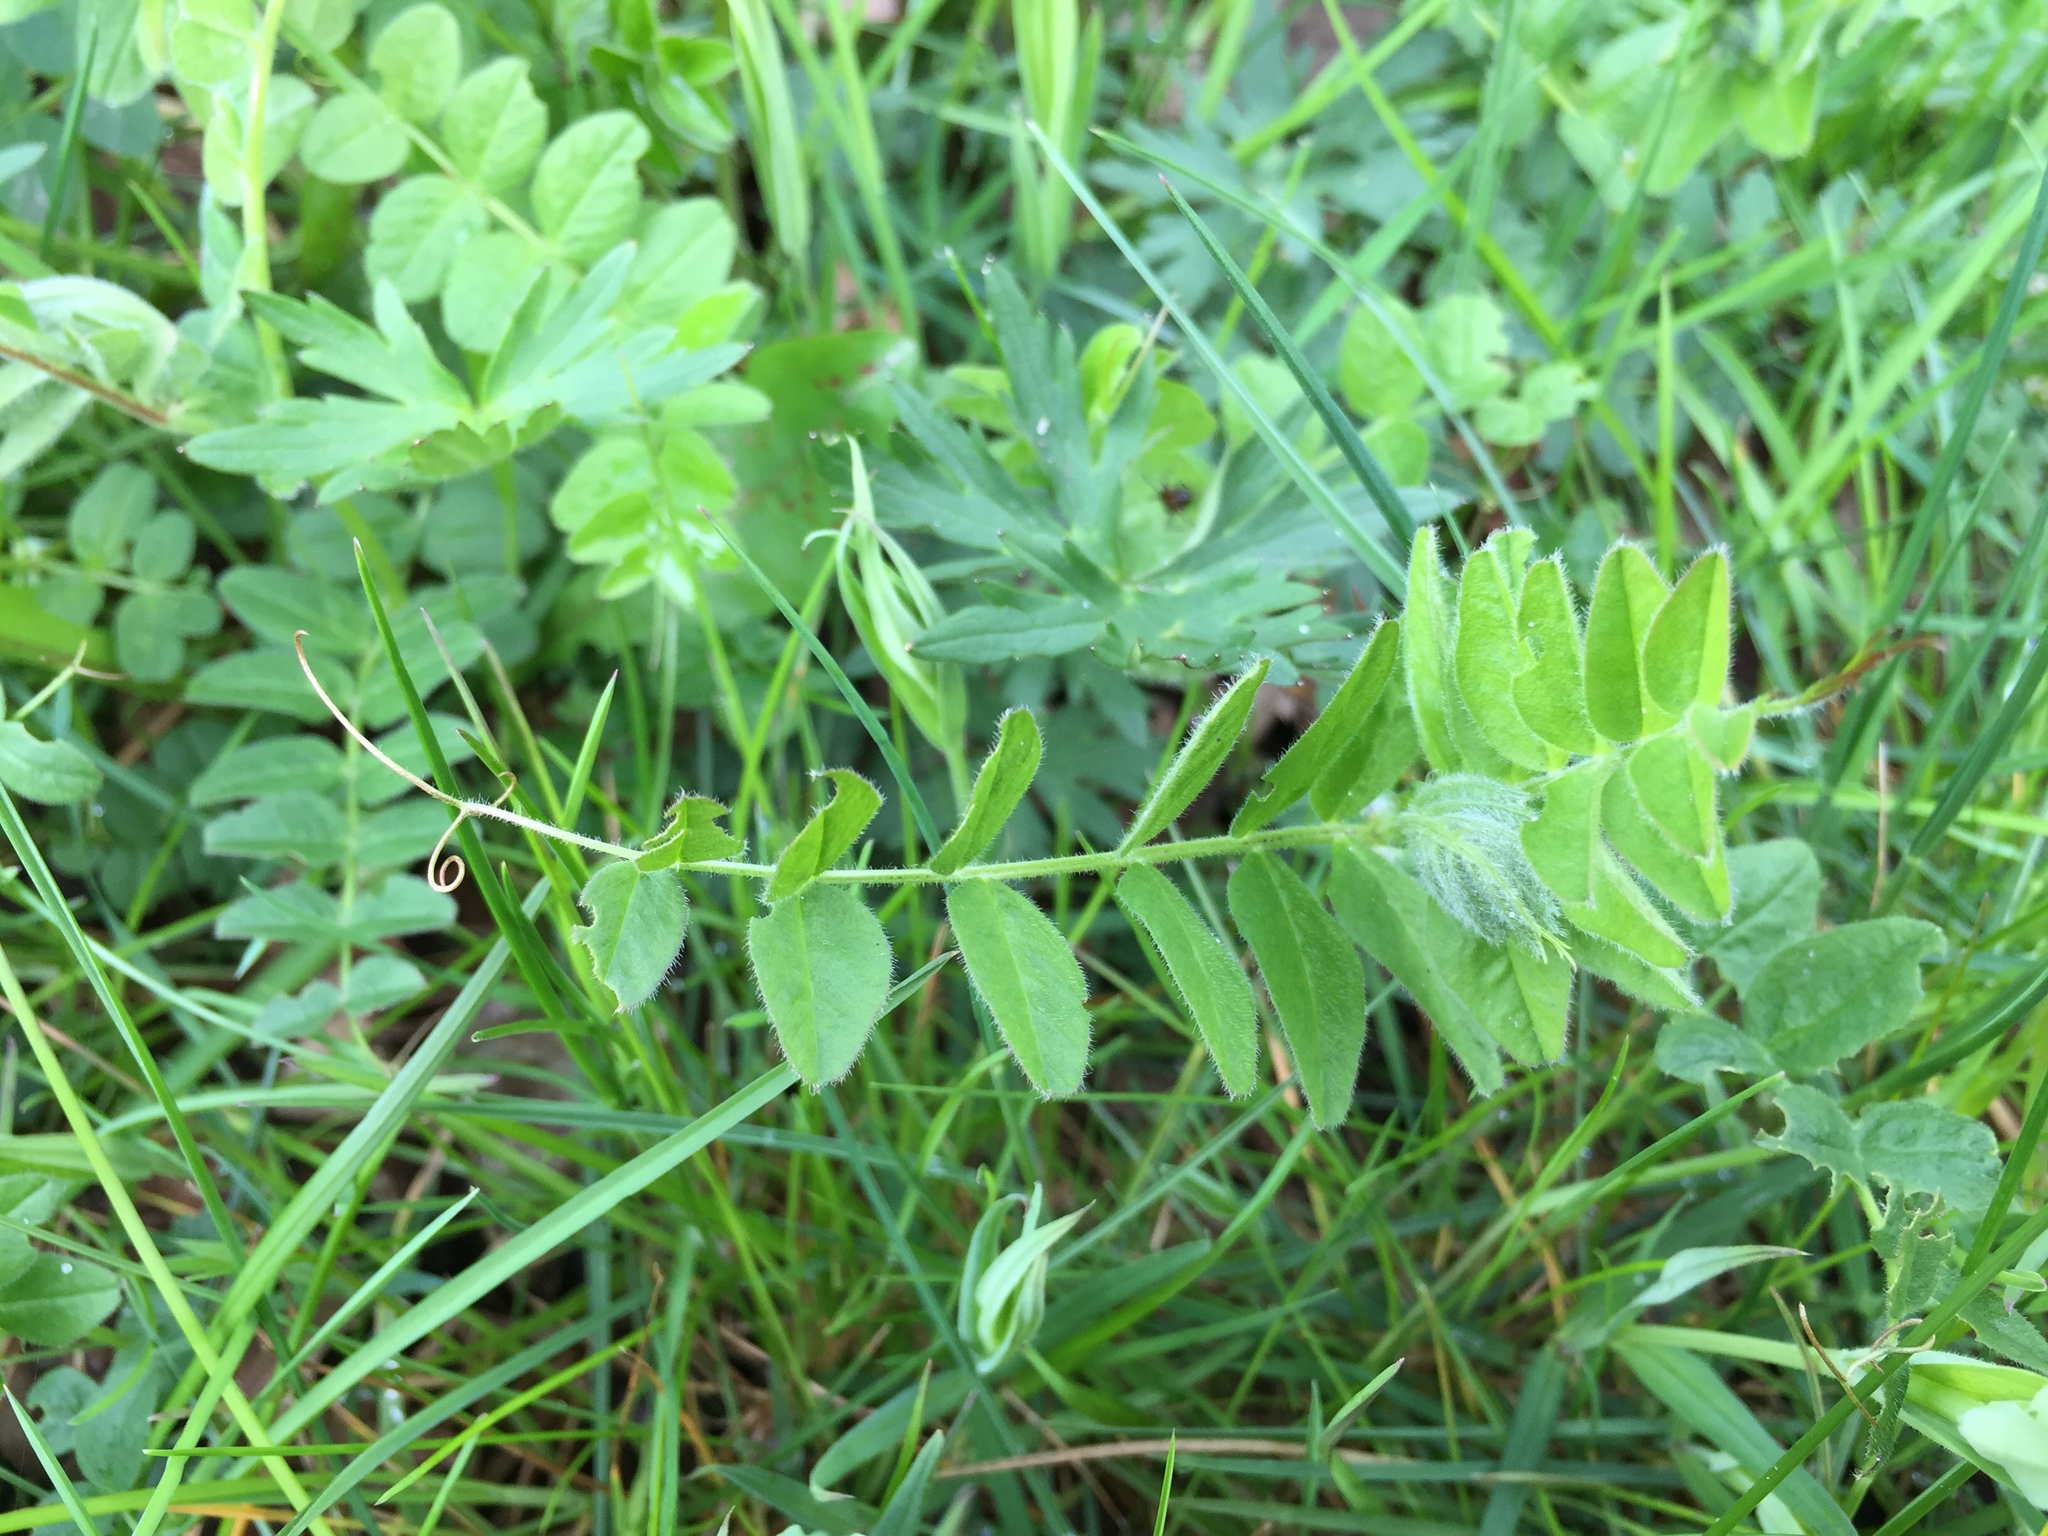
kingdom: Plantae
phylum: Tracheophyta
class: Magnoliopsida
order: Fabales
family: Fabaceae
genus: Vicia
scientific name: Vicia sepium
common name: Bush vetch
